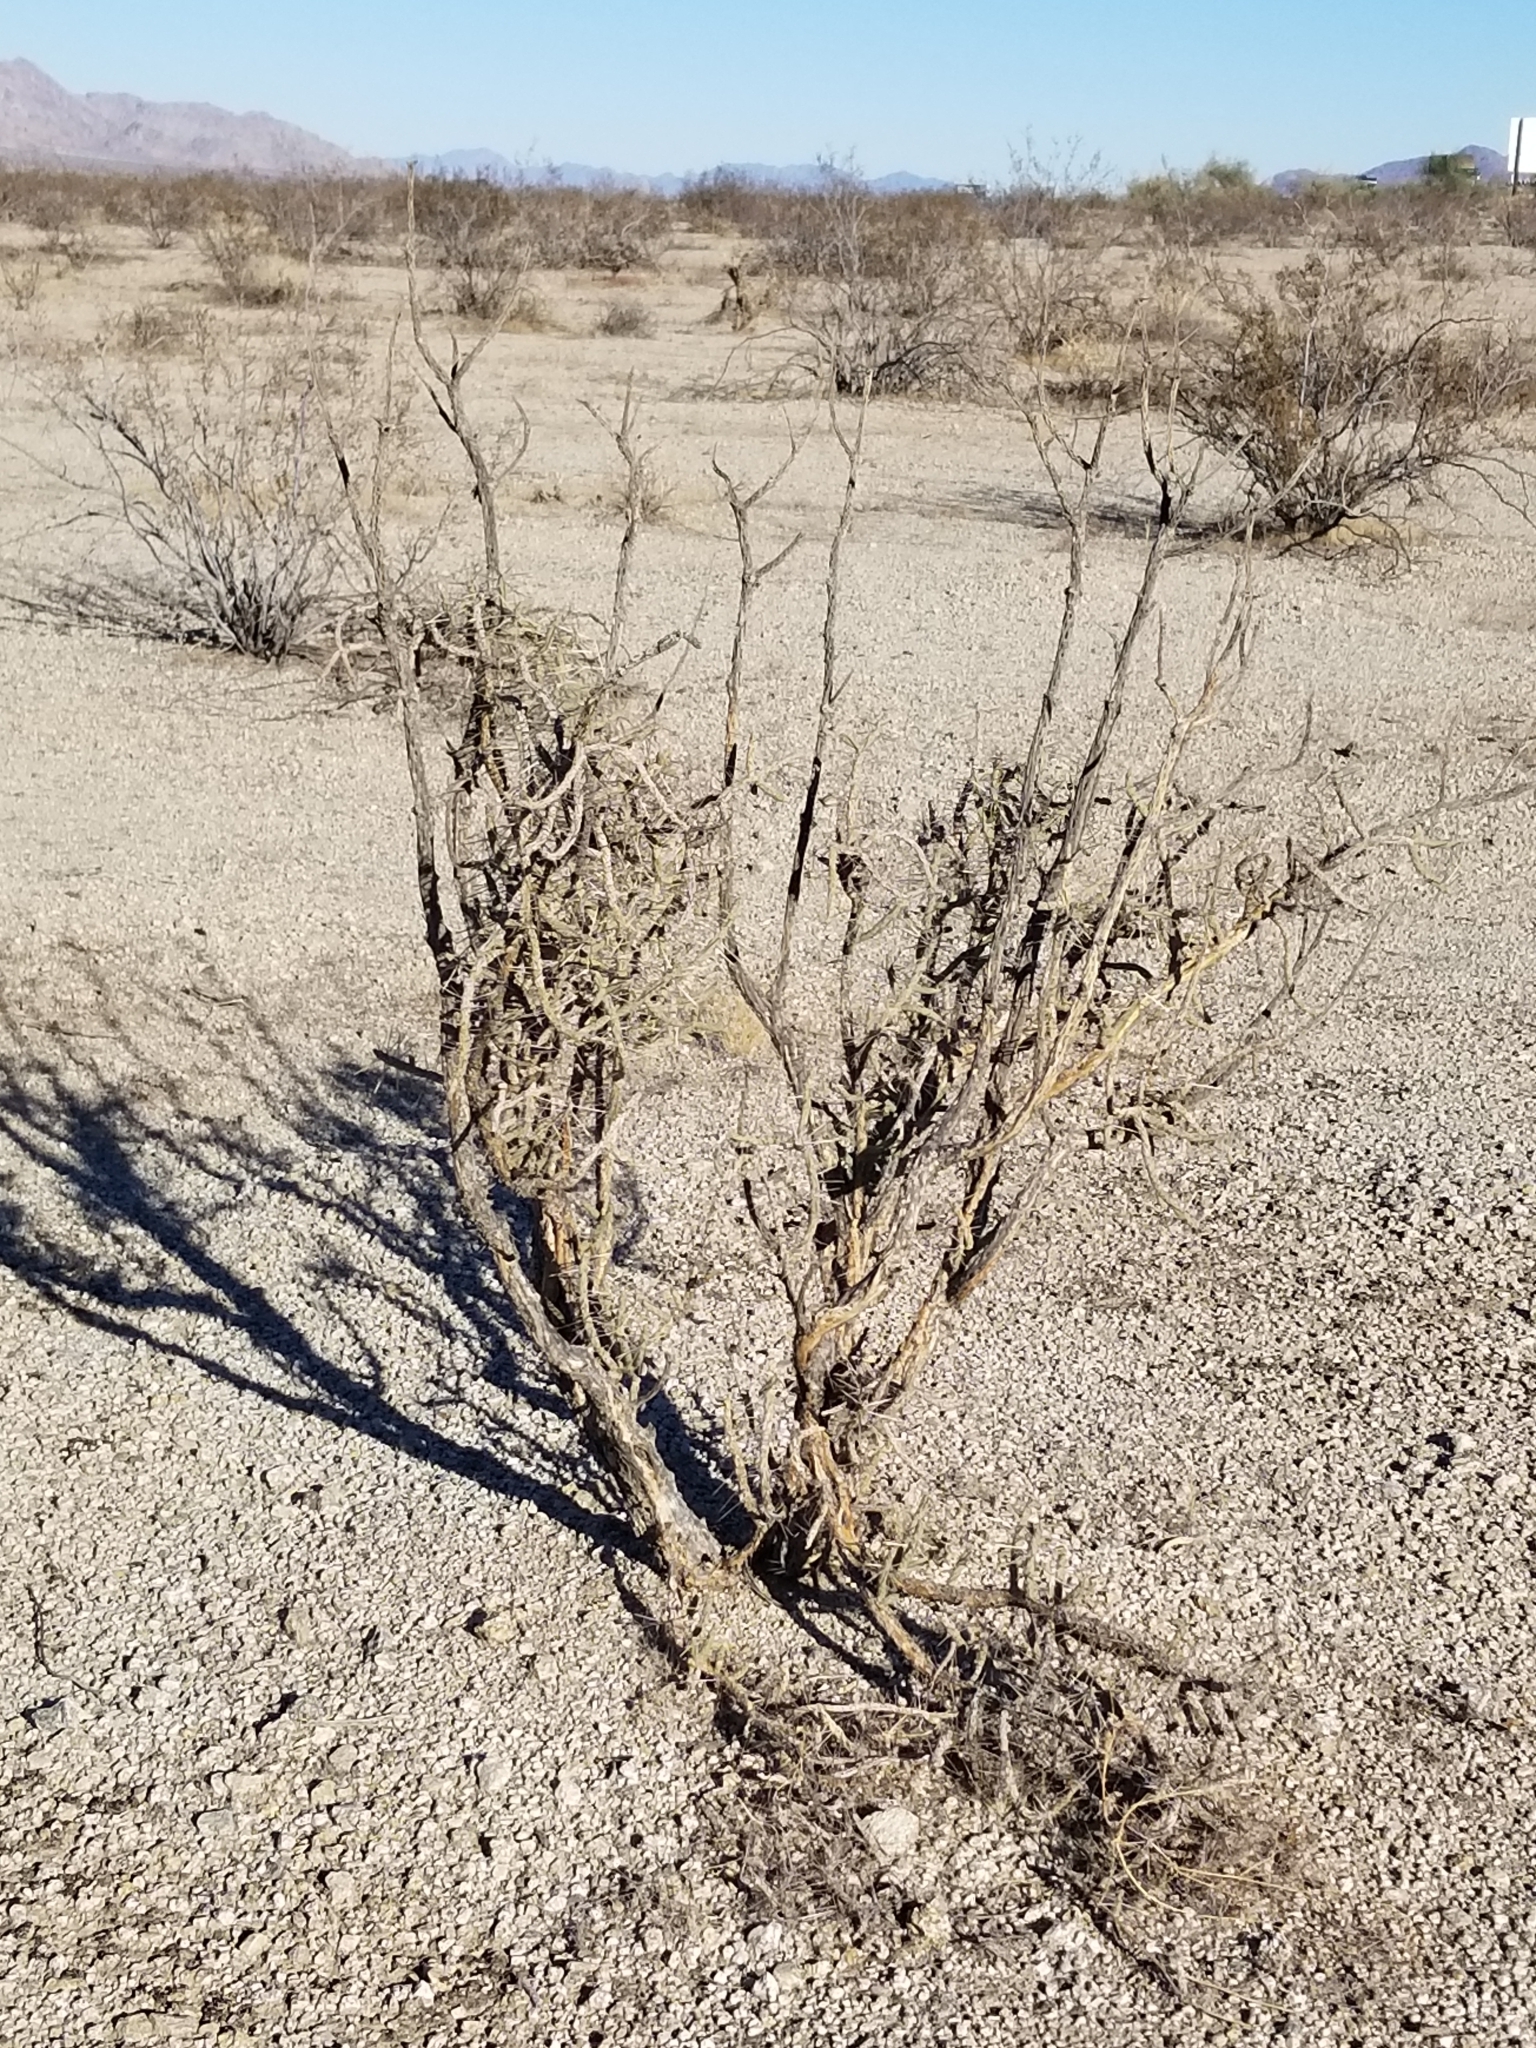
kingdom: Plantae
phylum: Tracheophyta
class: Magnoliopsida
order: Caryophyllales
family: Cactaceae
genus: Cylindropuntia
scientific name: Cylindropuntia ramosissima
